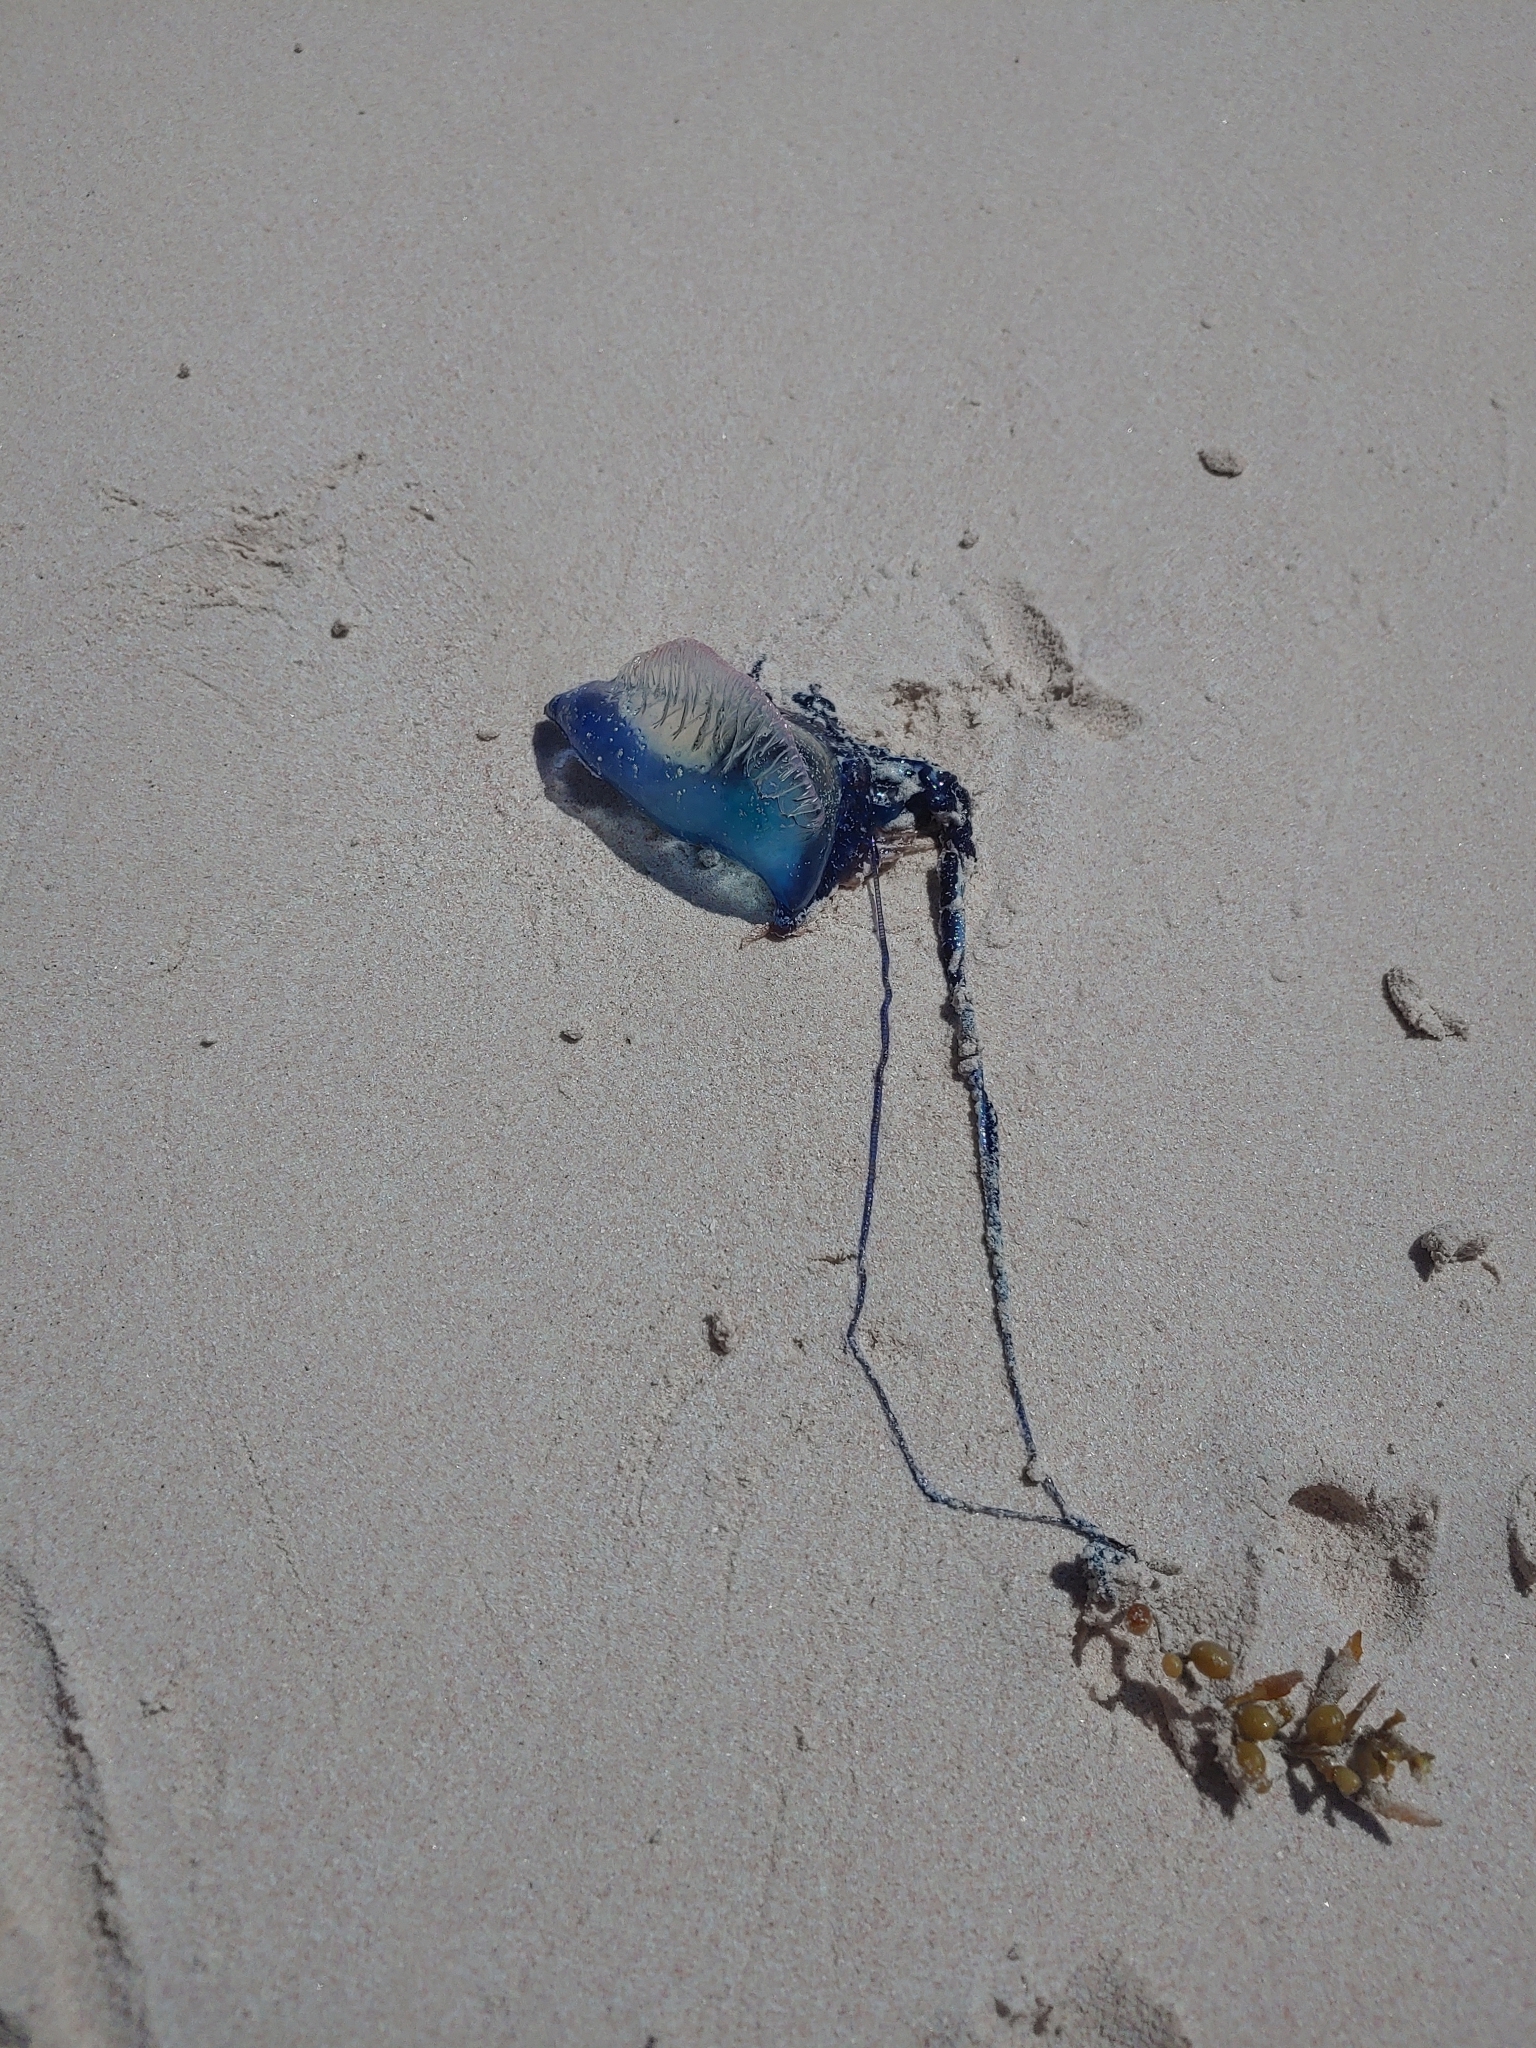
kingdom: Animalia
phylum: Cnidaria
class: Hydrozoa
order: Siphonophorae
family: Physaliidae
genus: Physalia
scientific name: Physalia physalis
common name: Portuguese man-of-war
